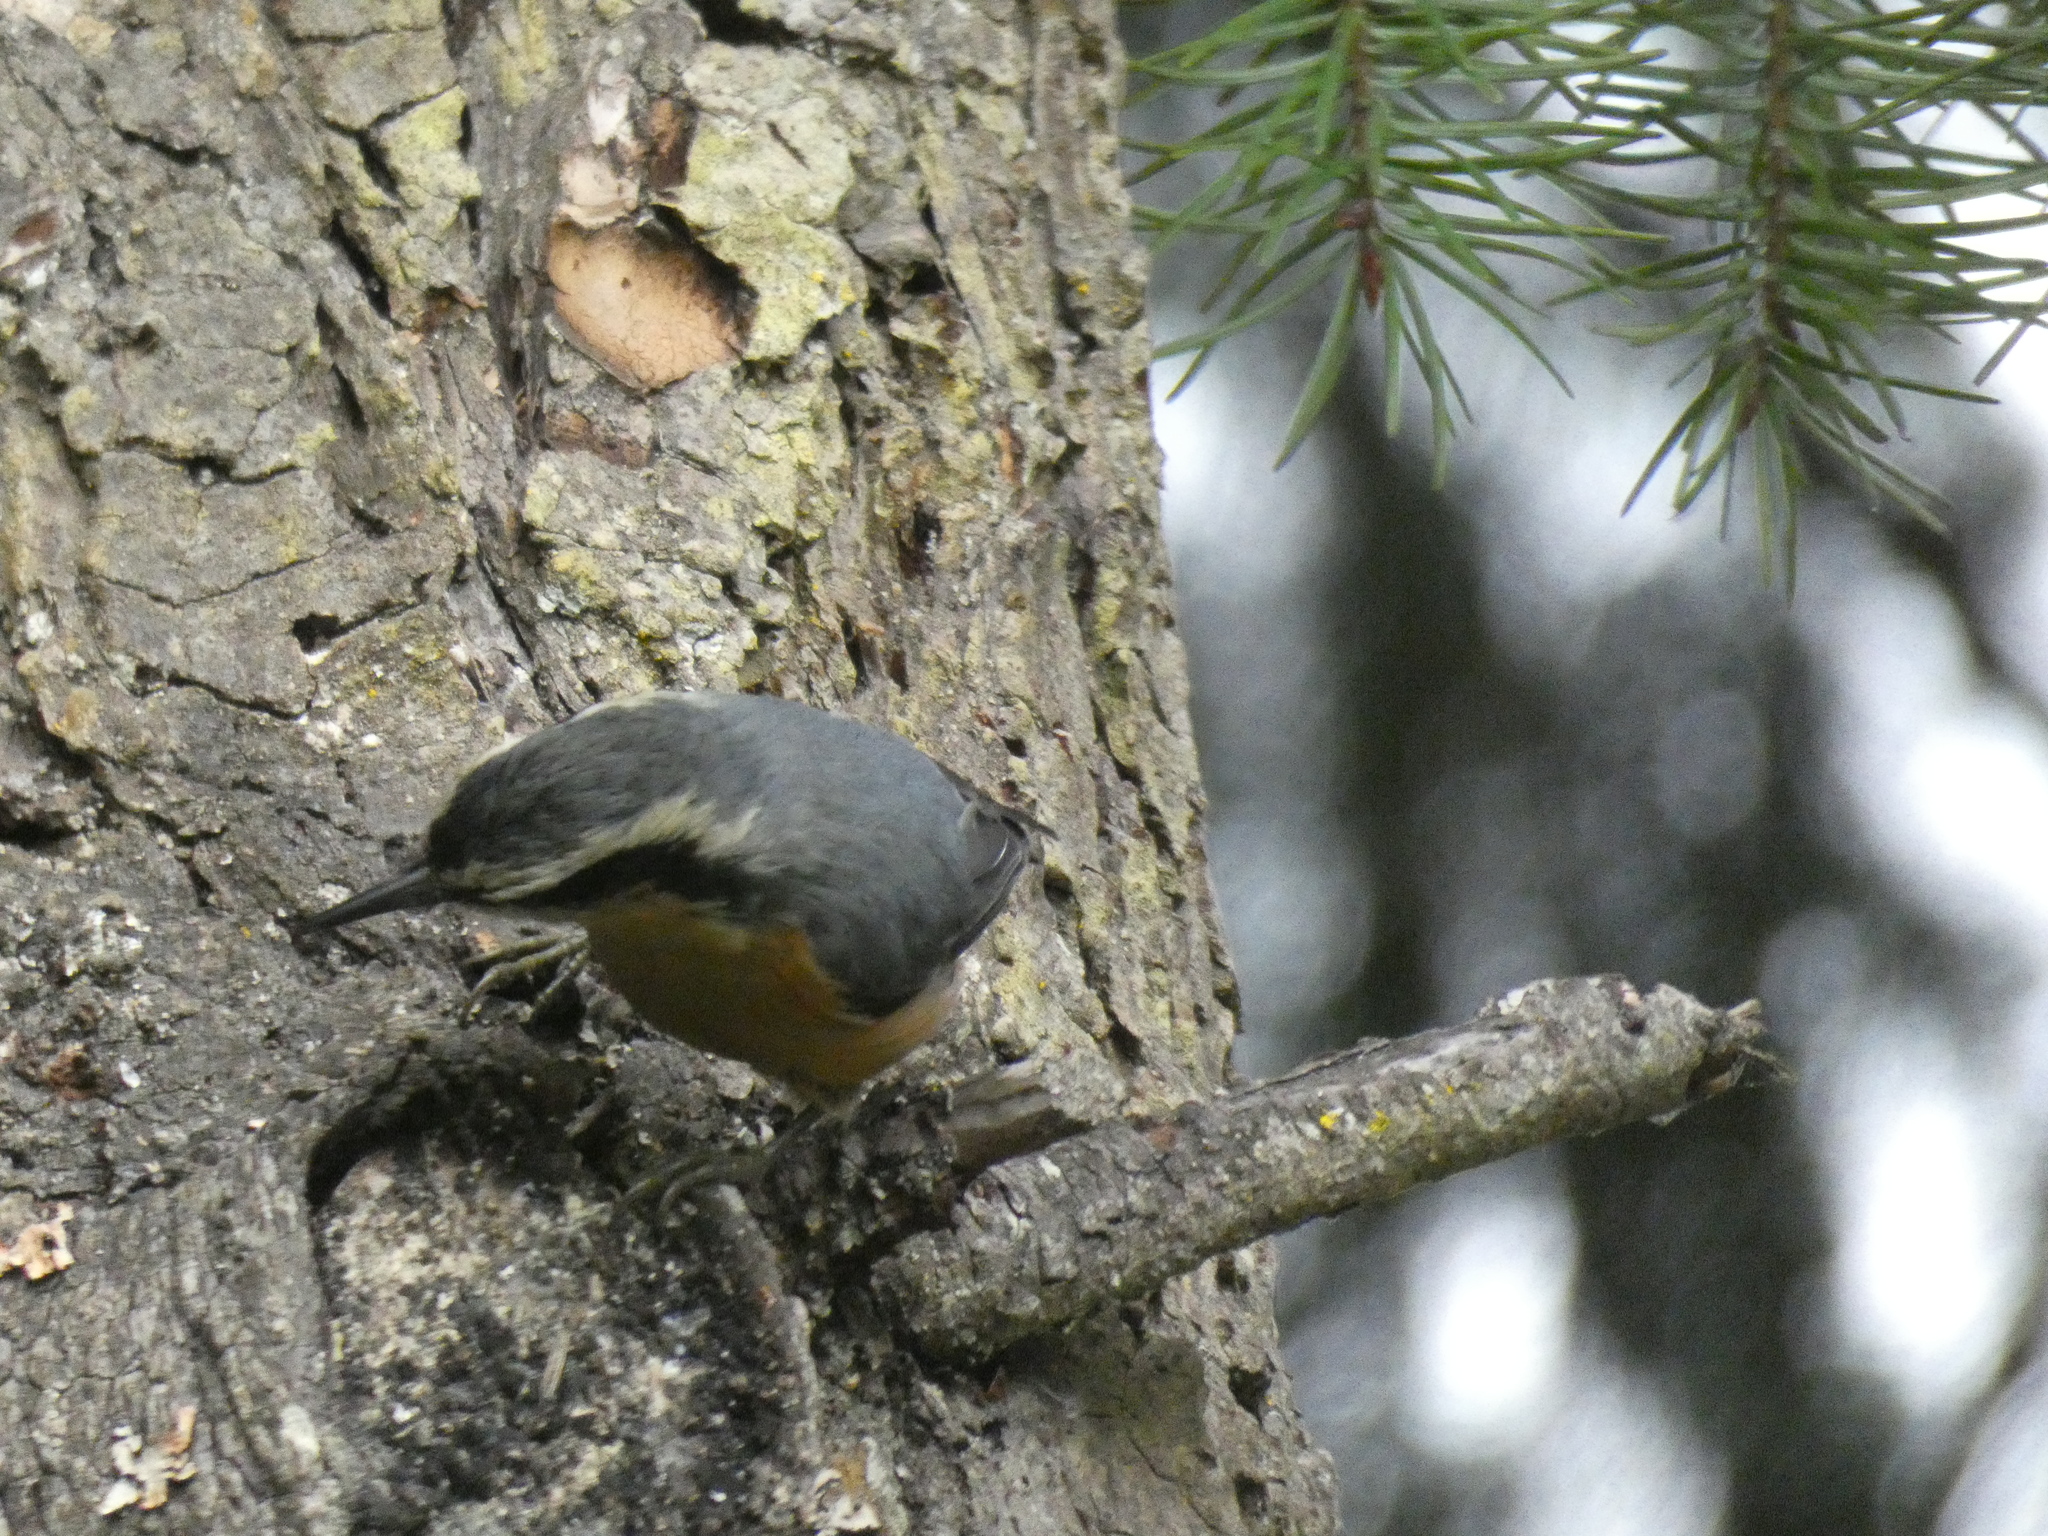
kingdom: Animalia
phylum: Chordata
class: Aves
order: Passeriformes
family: Sittidae
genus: Sitta
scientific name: Sitta canadensis
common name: Red-breasted nuthatch
